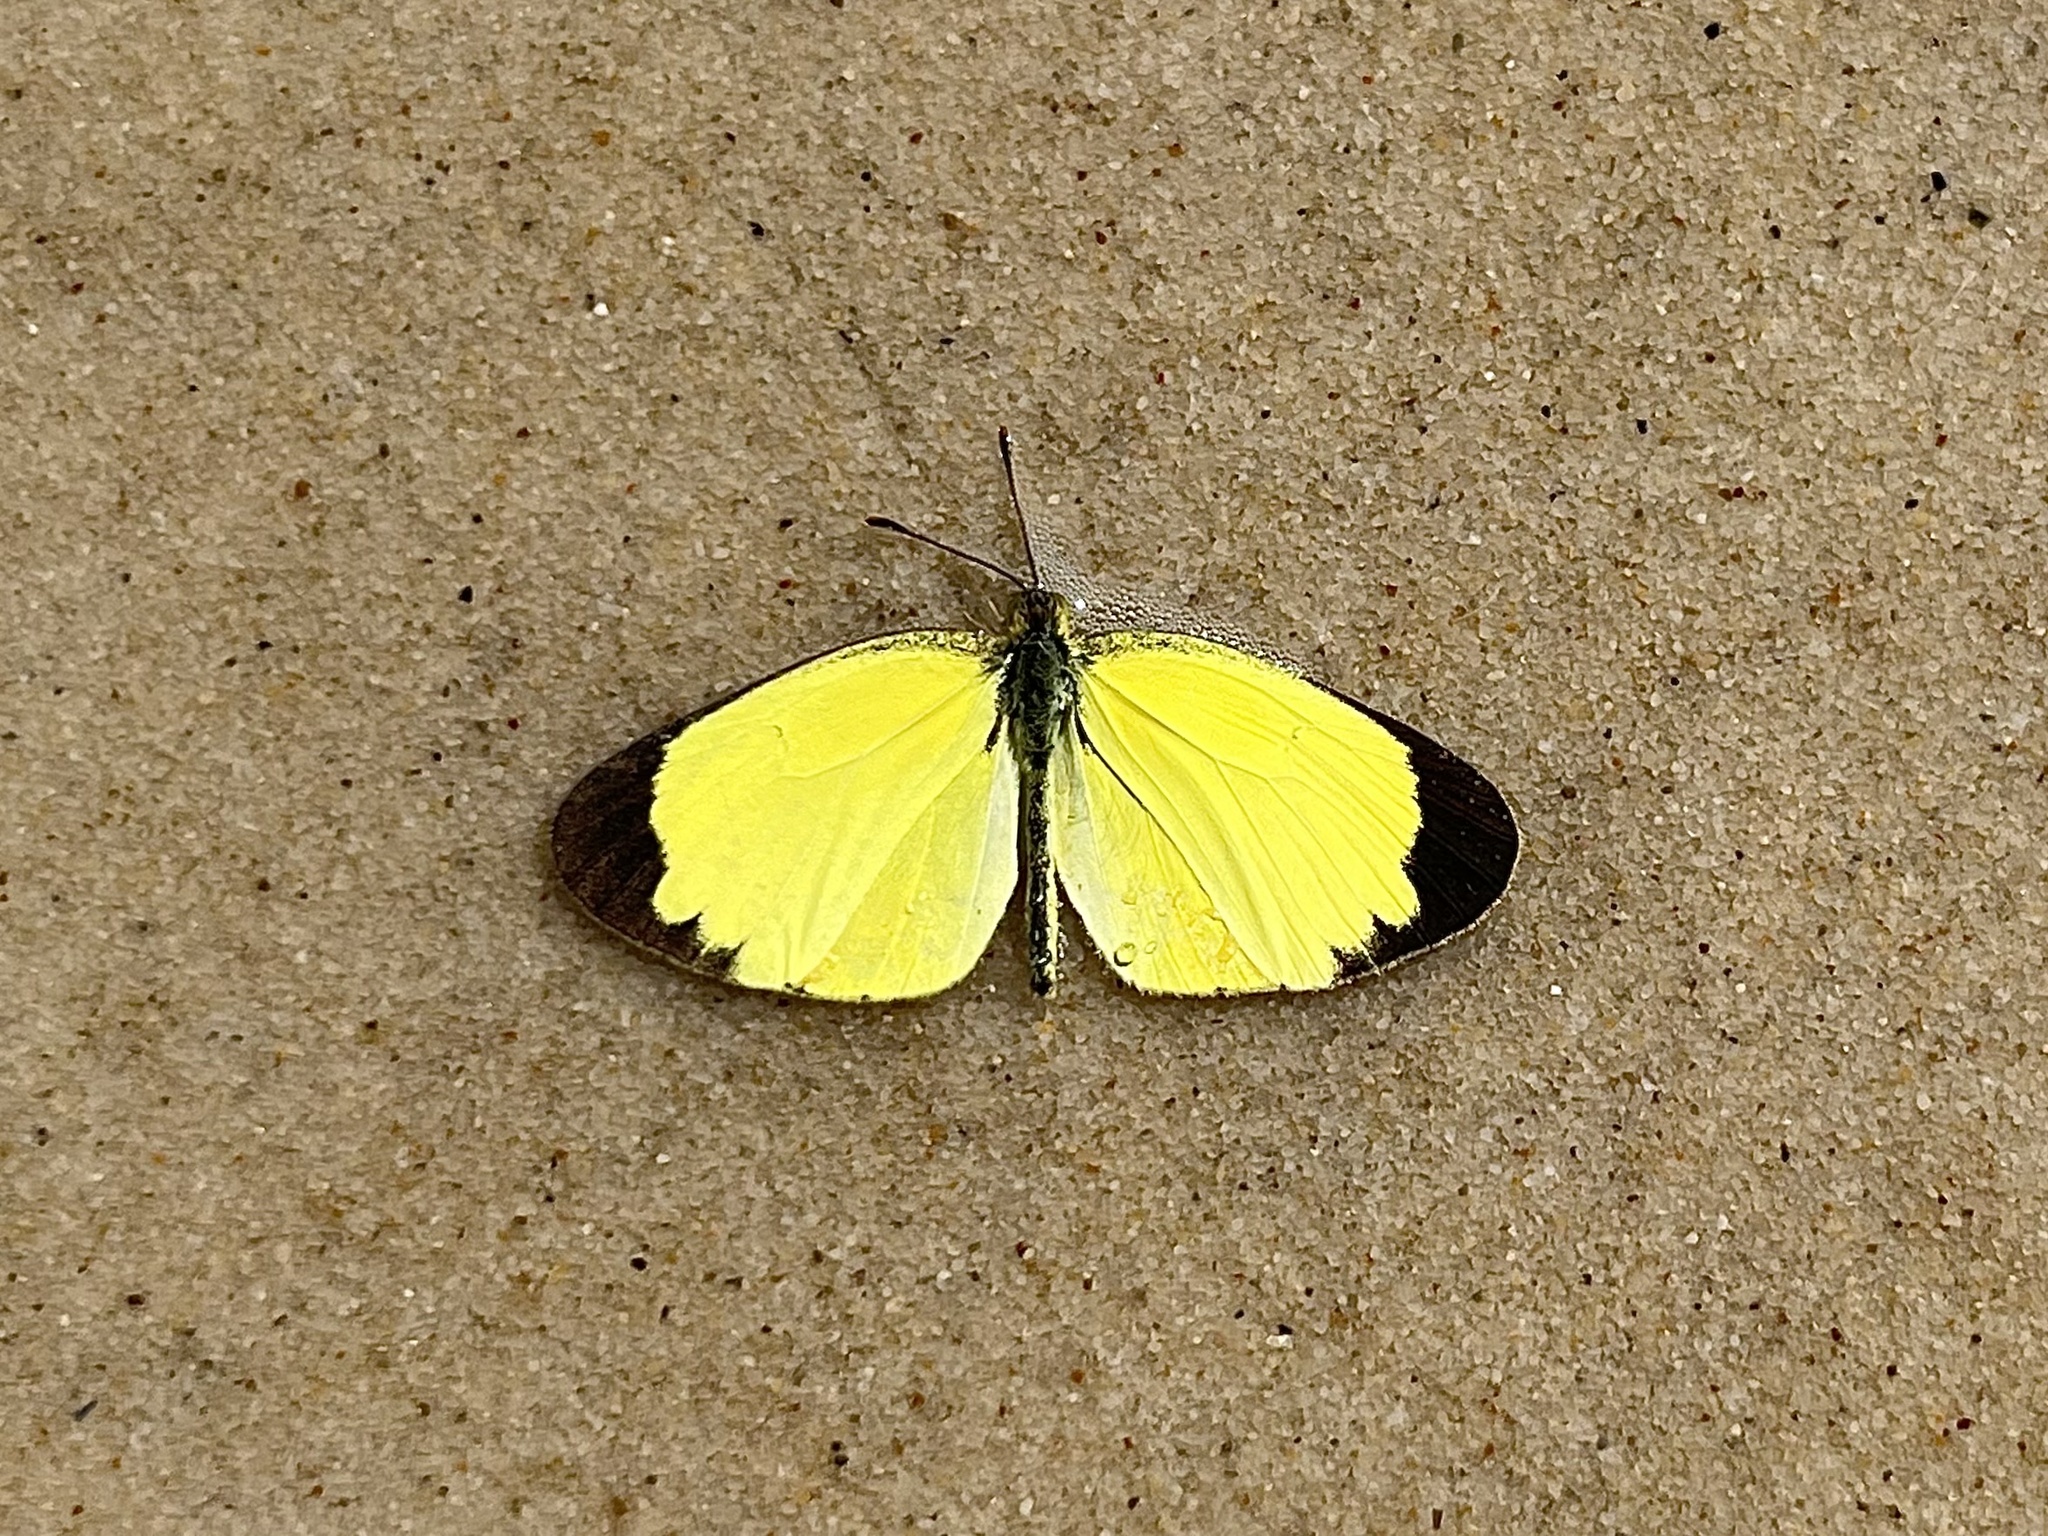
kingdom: Animalia
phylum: Arthropoda
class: Insecta
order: Lepidoptera
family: Pieridae
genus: Eurema
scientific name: Eurema smilax
